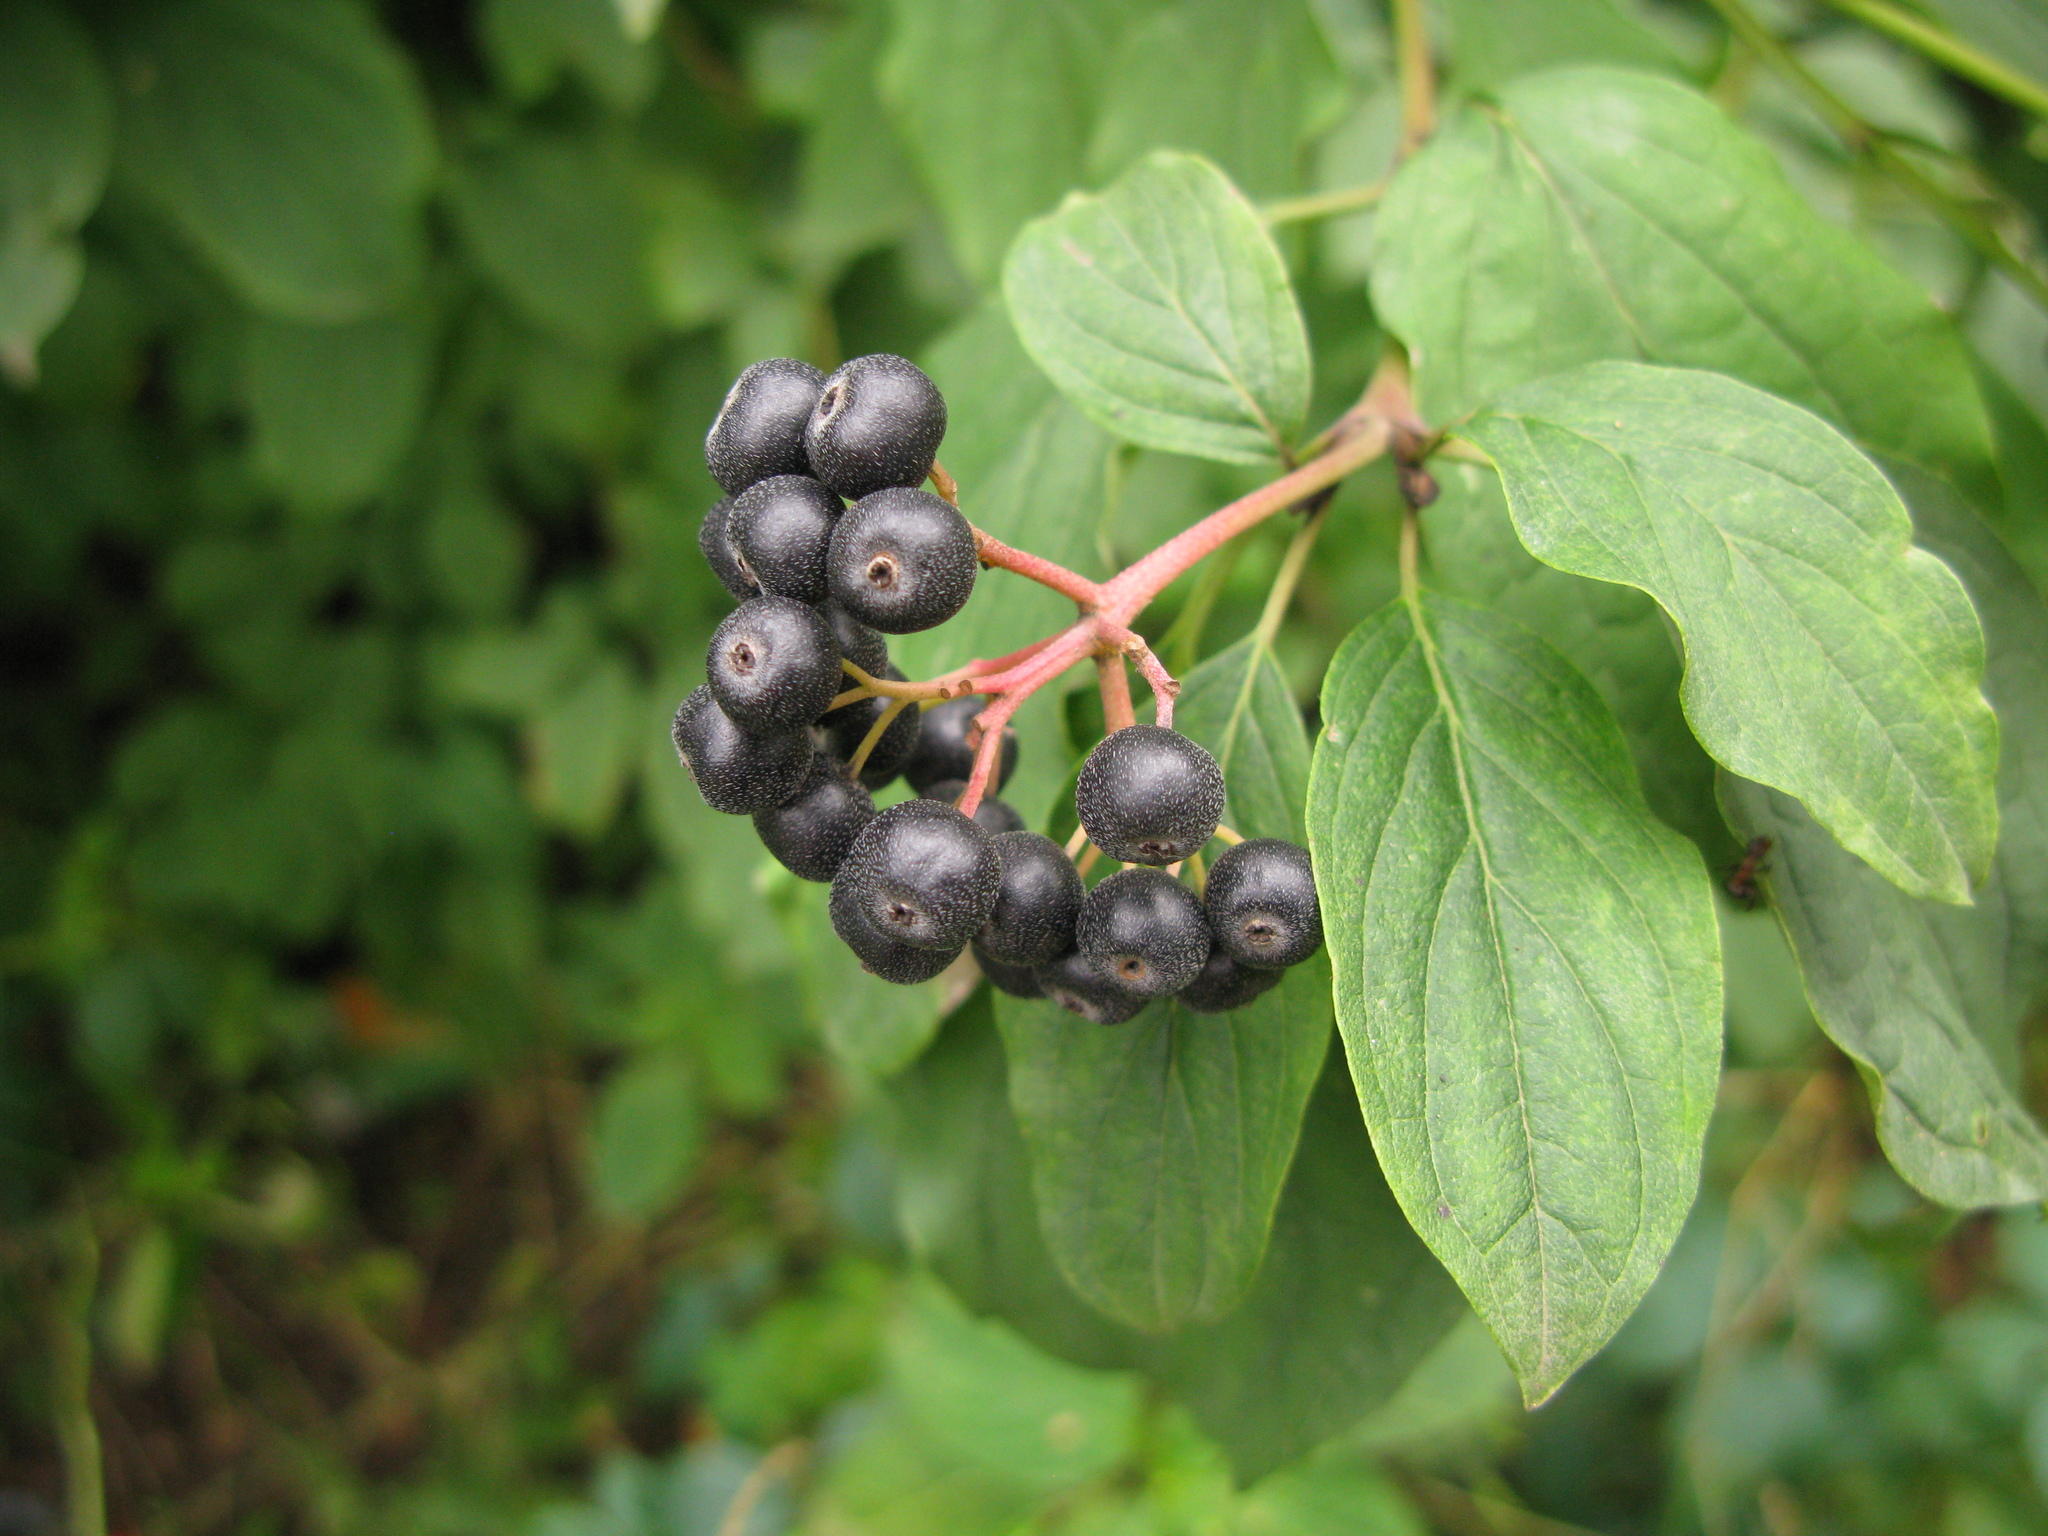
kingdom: Plantae
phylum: Tracheophyta
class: Magnoliopsida
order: Cornales
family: Cornaceae
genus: Cornus
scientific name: Cornus sanguinea
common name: Dogwood
